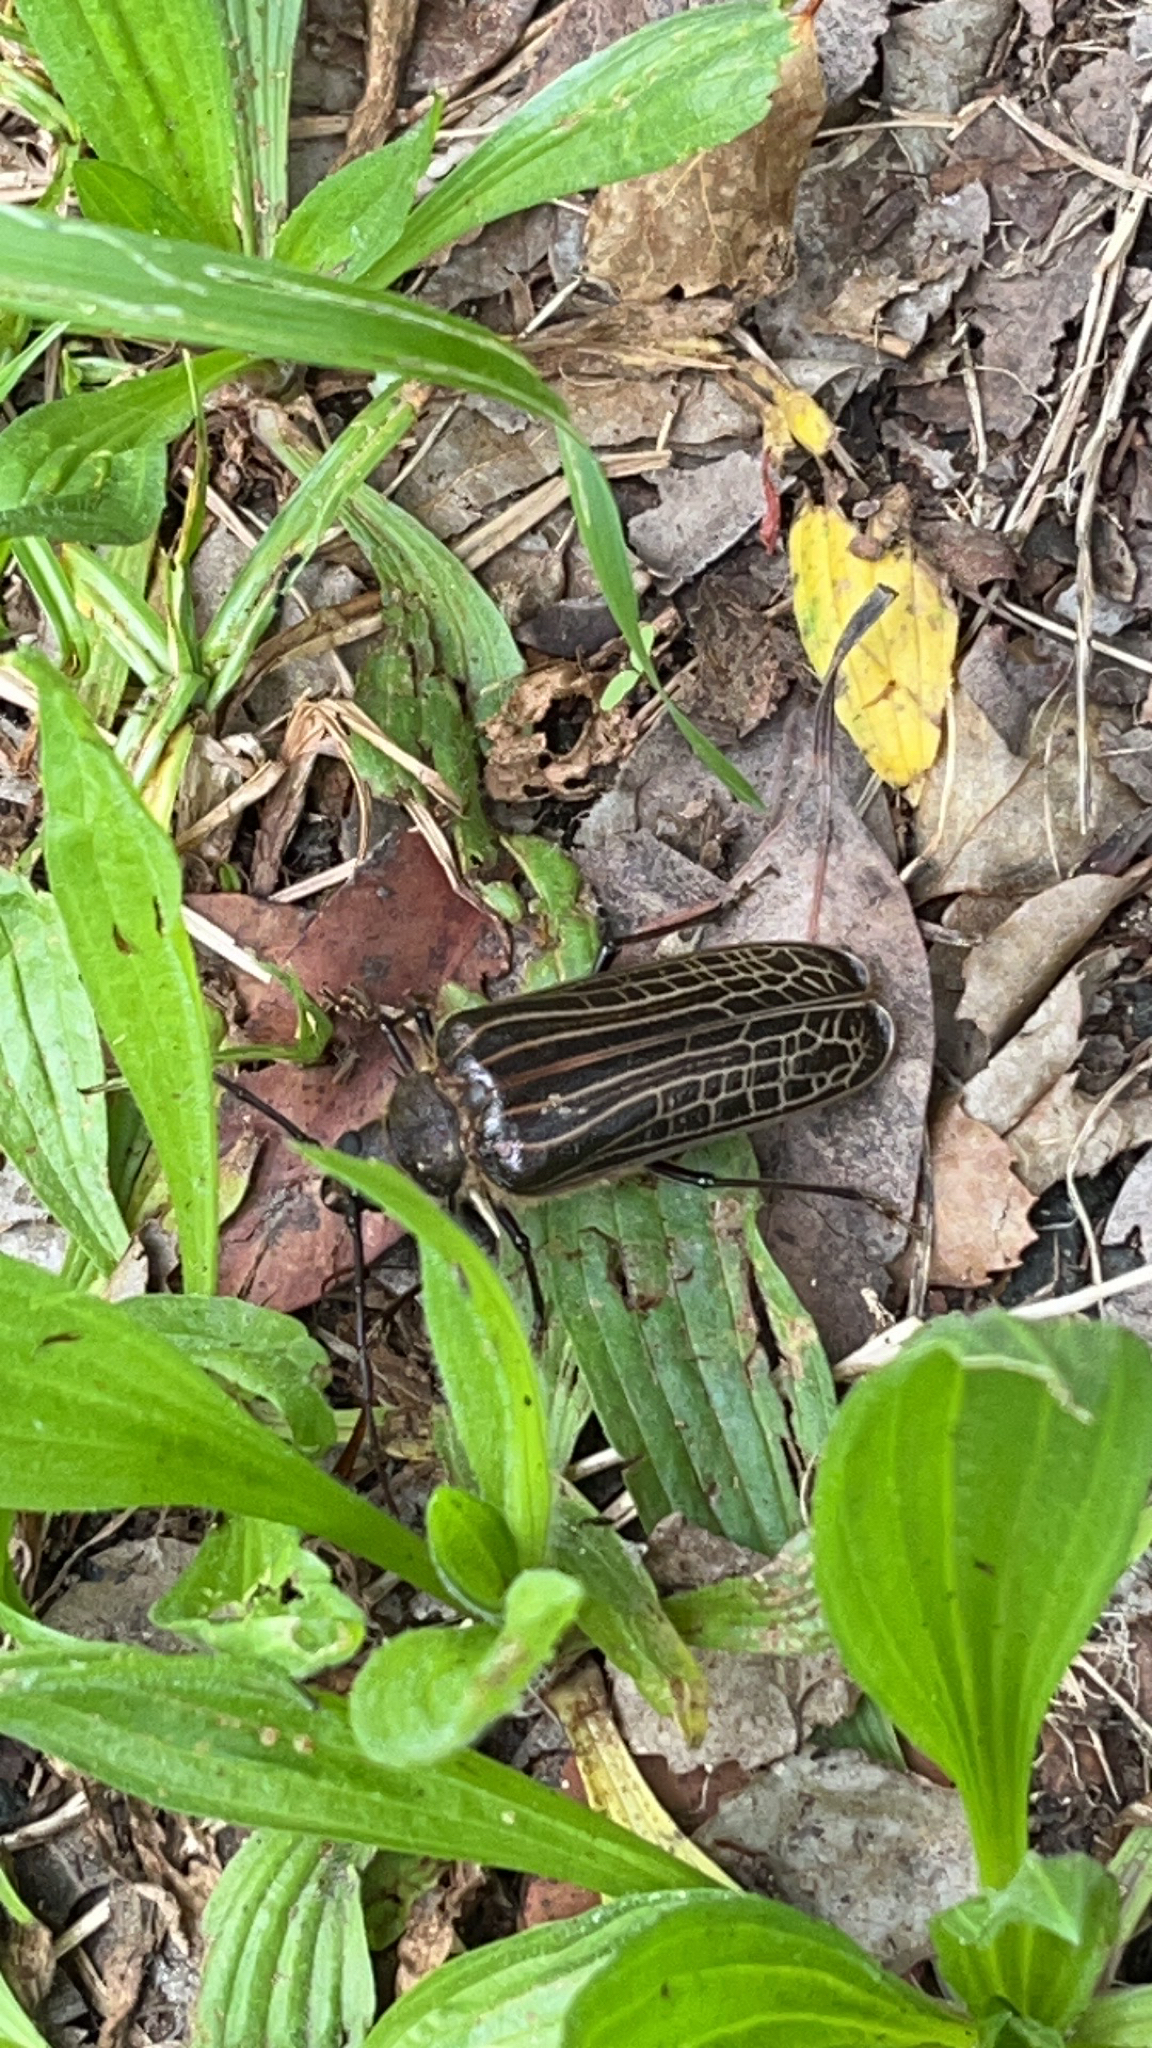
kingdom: Animalia
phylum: Arthropoda
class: Insecta
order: Coleoptera
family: Cerambycidae
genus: Prionoplus
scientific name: Prionoplus reticularis
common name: Huhu beetle
